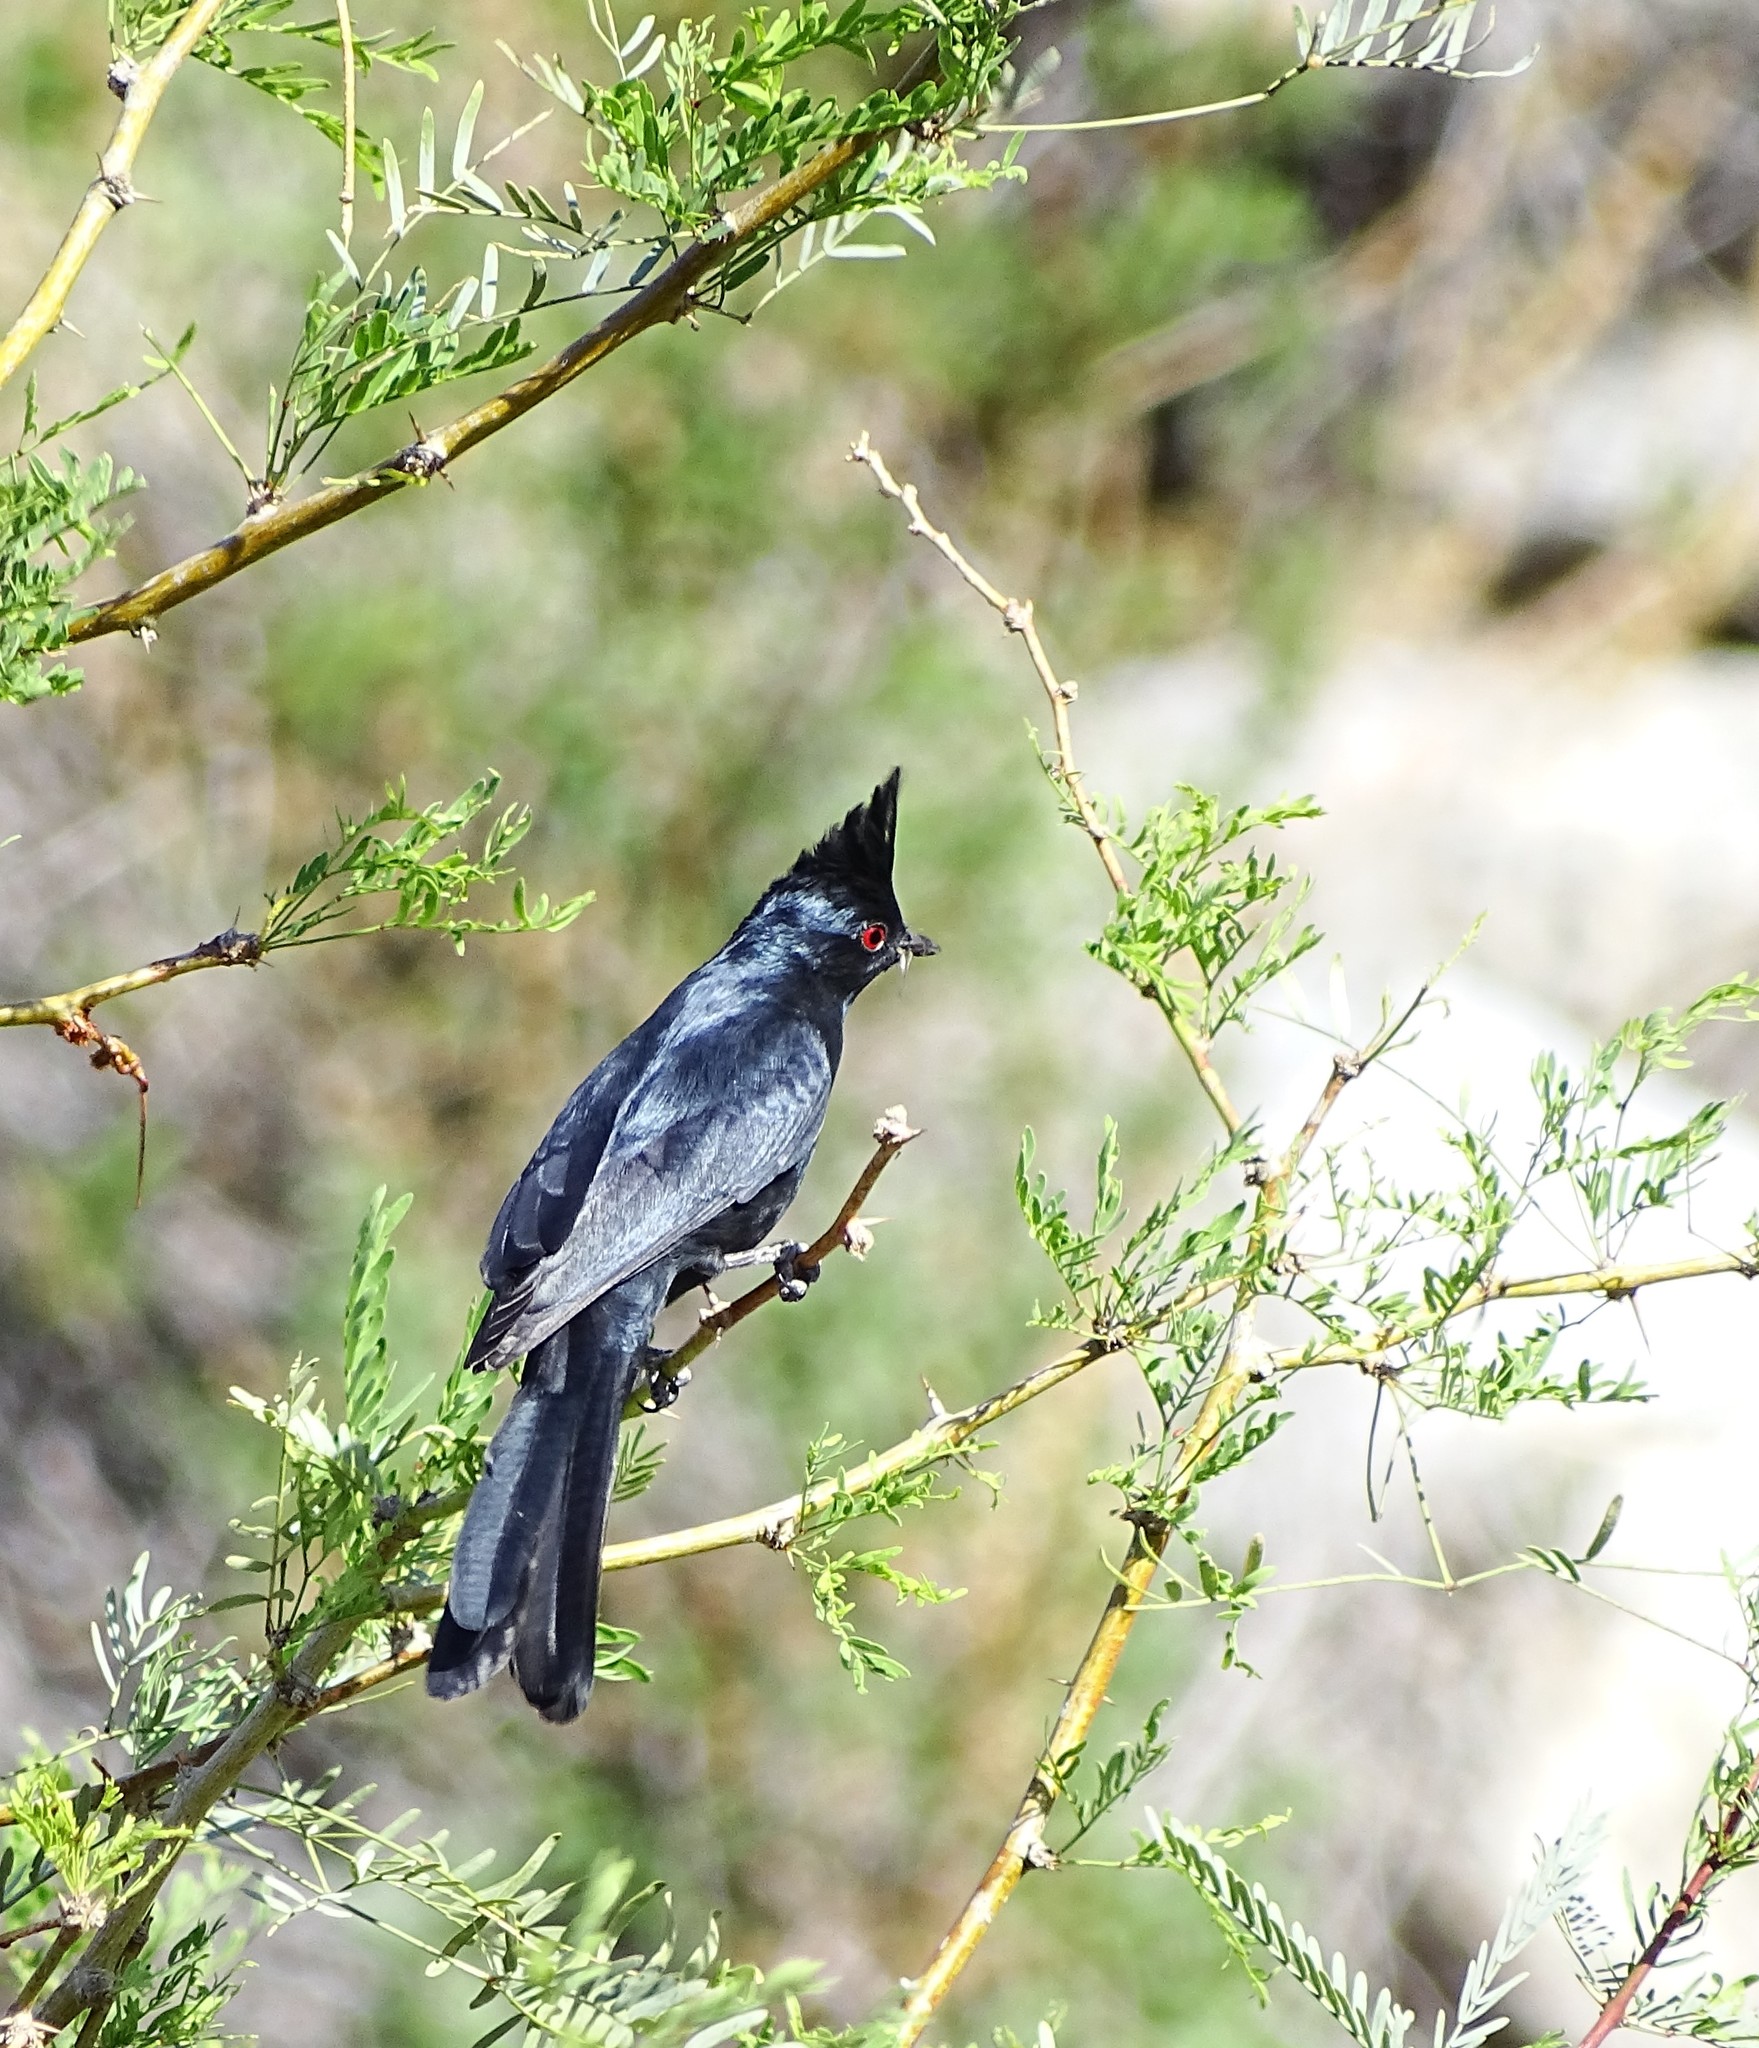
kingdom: Animalia
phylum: Chordata
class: Aves
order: Passeriformes
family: Ptilogonatidae
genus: Phainopepla
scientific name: Phainopepla nitens
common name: Phainopepla
